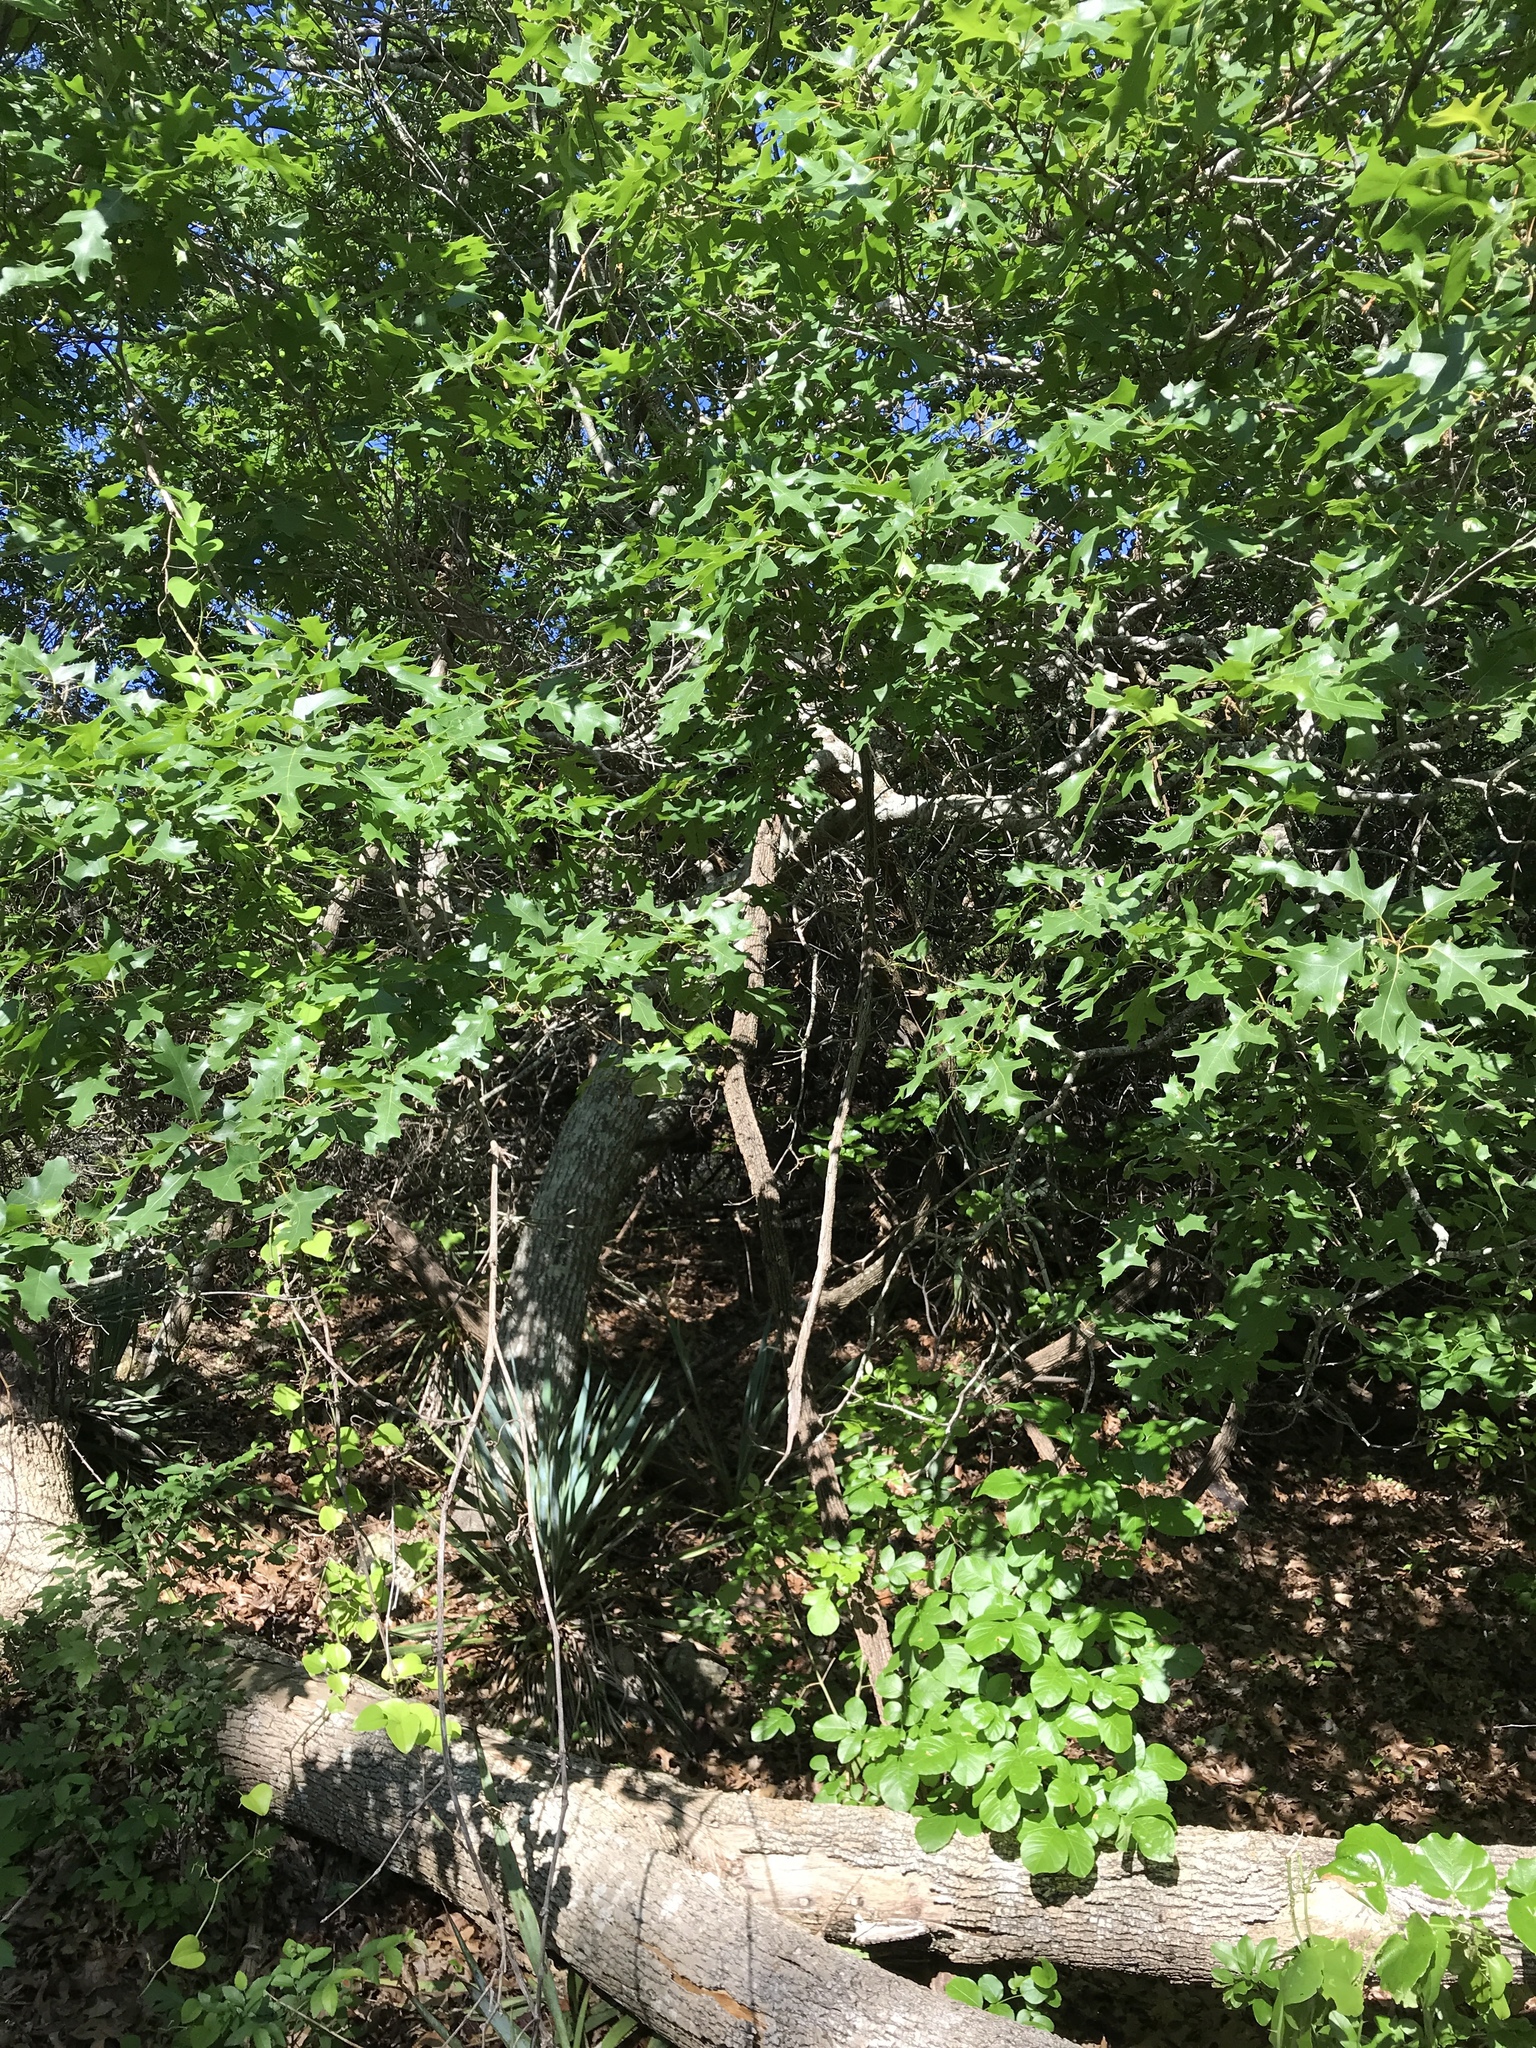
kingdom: Plantae
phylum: Tracheophyta
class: Magnoliopsida
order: Fagales
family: Fagaceae
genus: Quercus
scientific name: Quercus buckleyi
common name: Buckley oak
